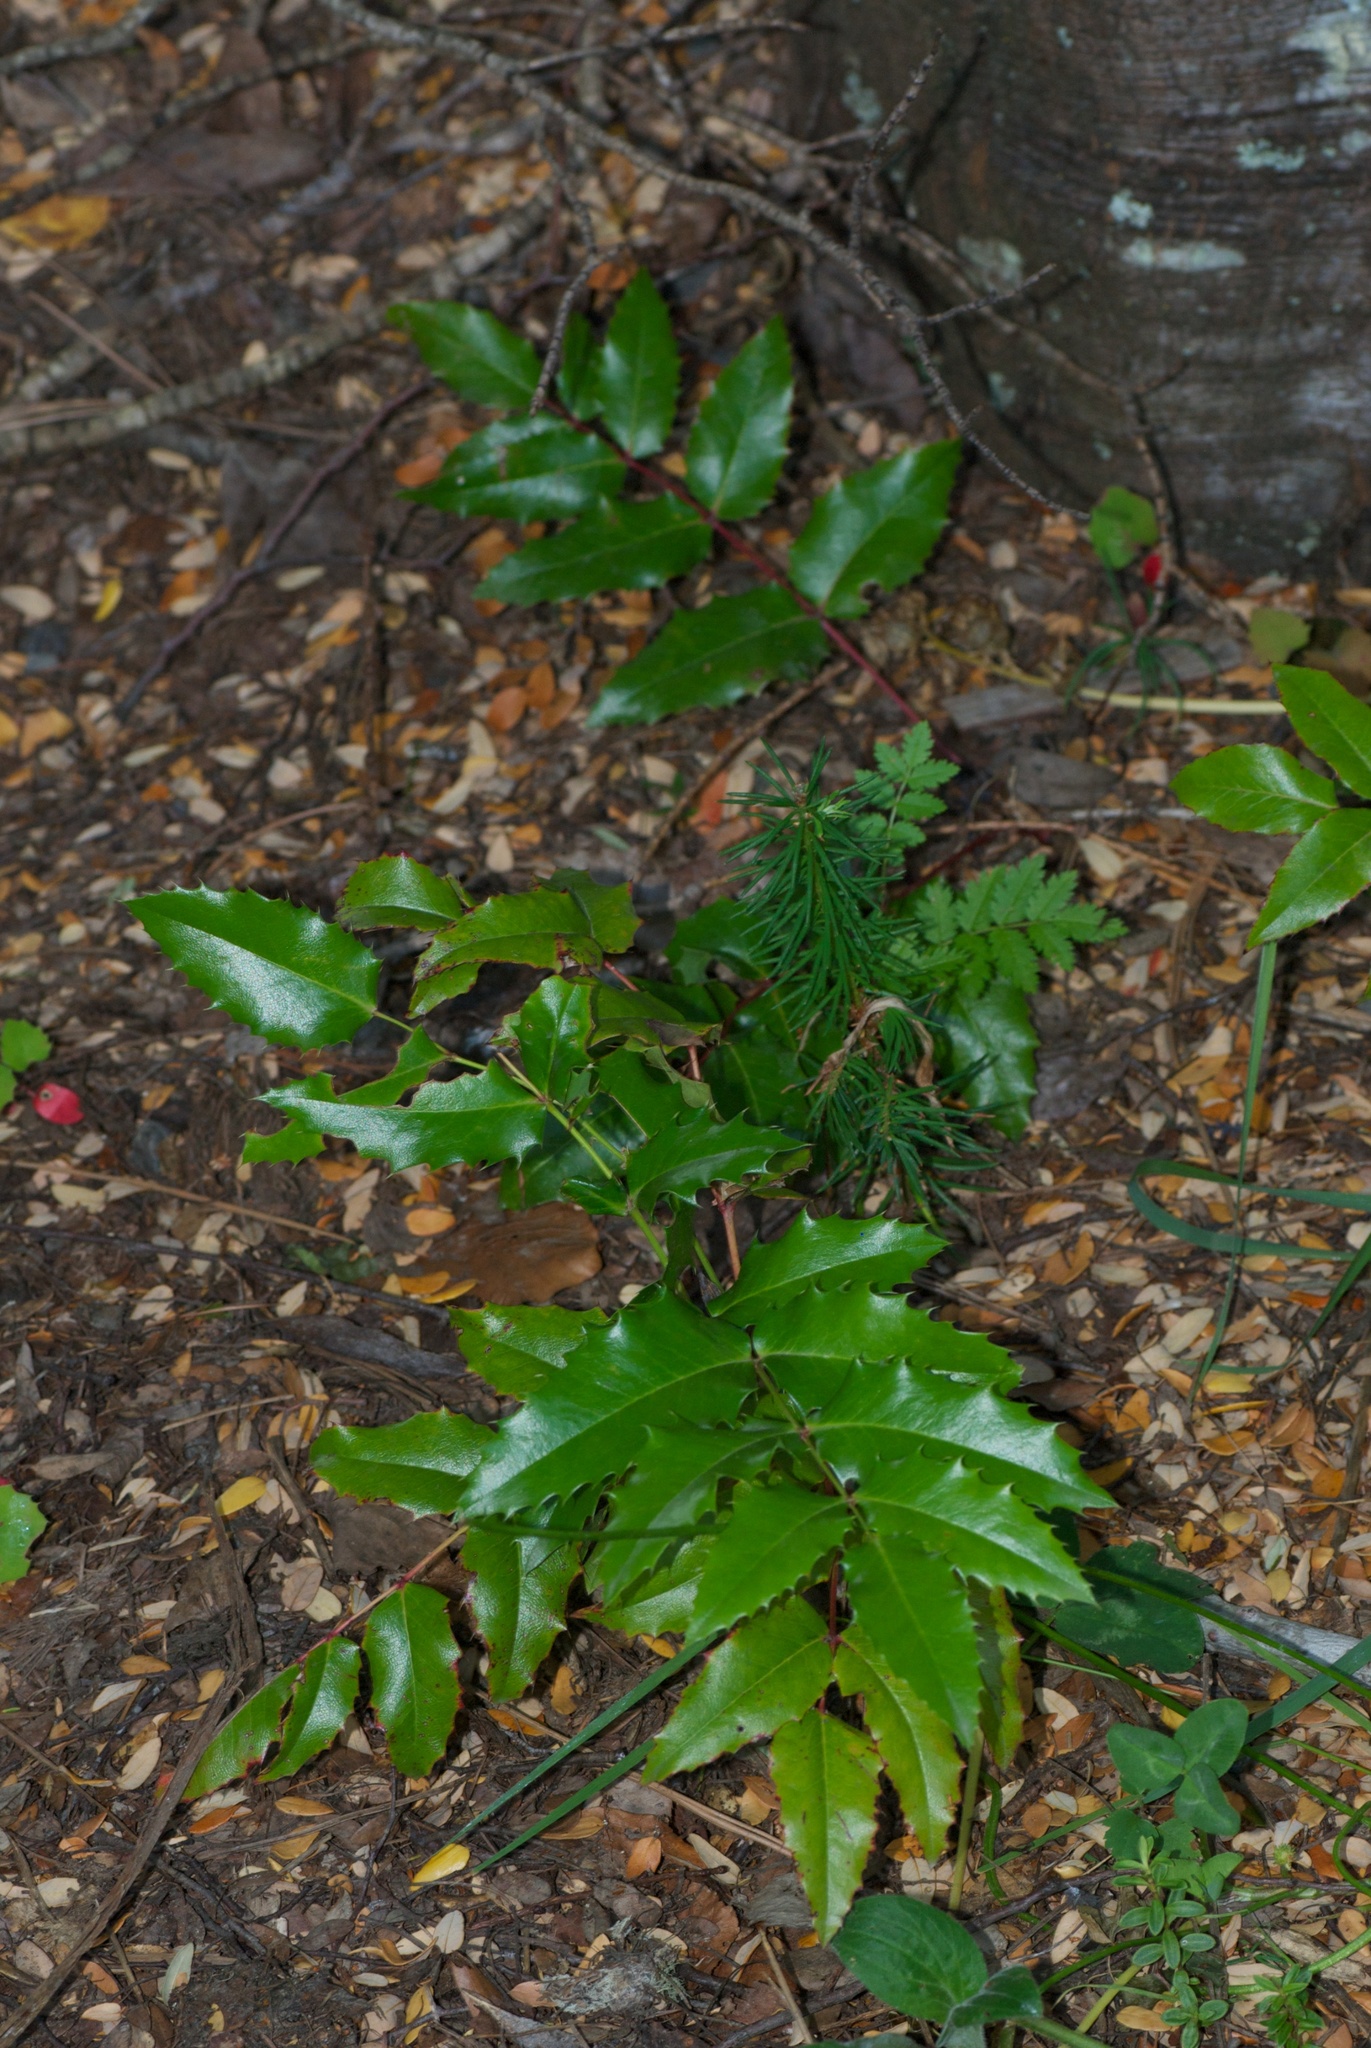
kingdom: Plantae
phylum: Tracheophyta
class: Magnoliopsida
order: Ranunculales
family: Berberidaceae
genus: Mahonia
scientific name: Mahonia aquifolium
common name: Oregon-grape
